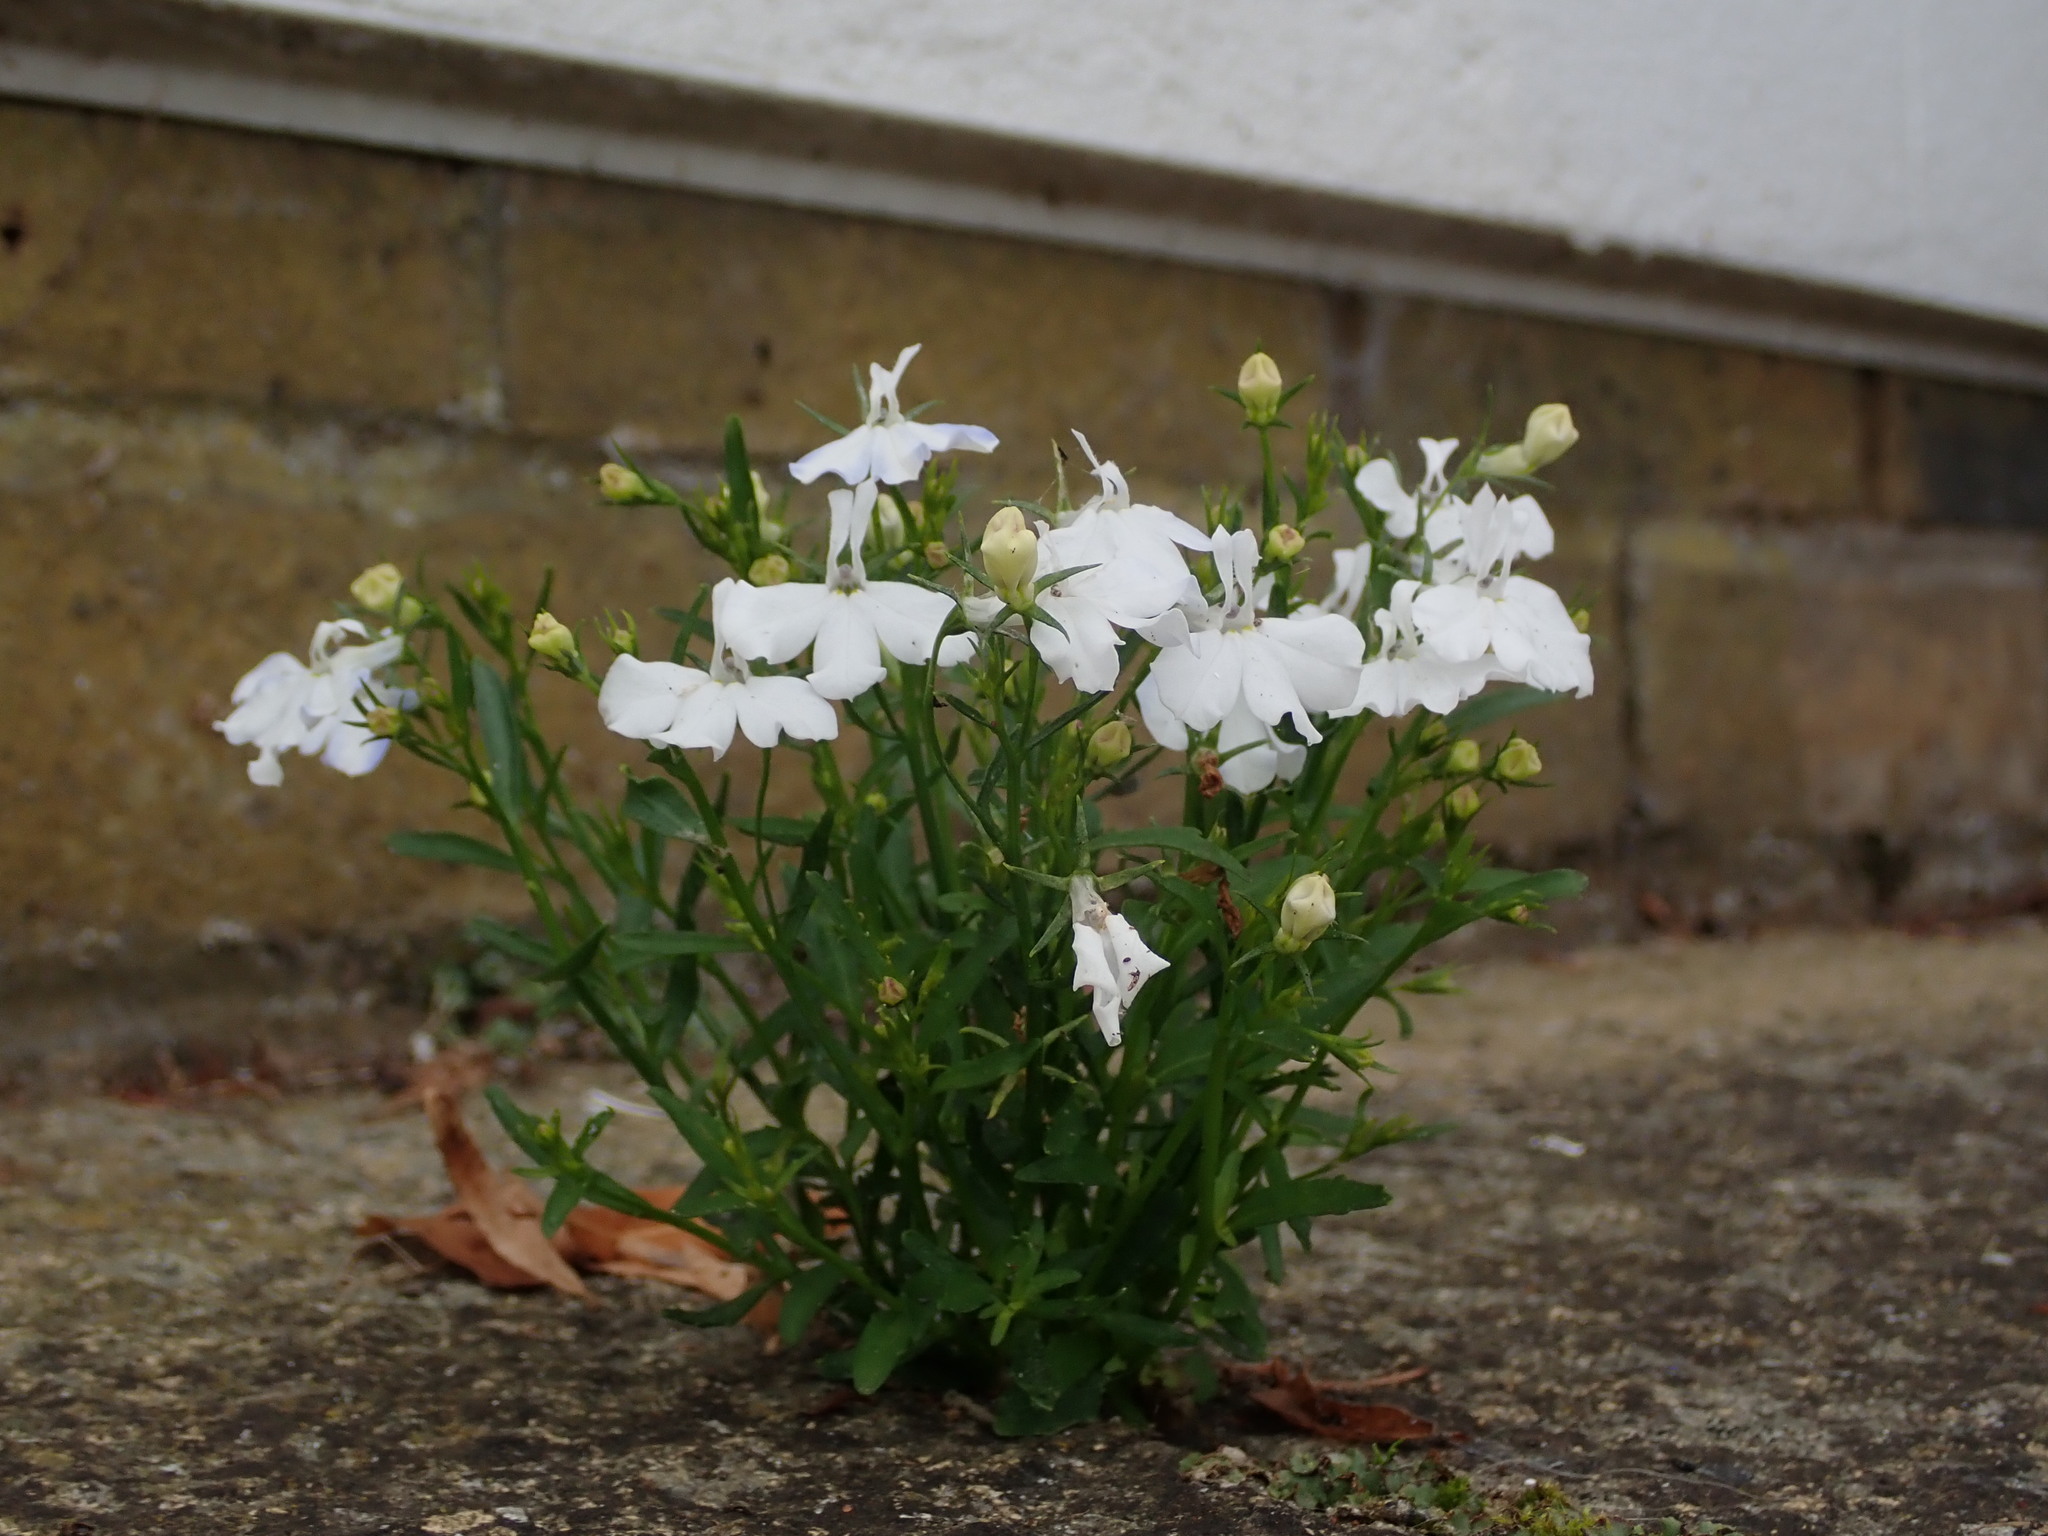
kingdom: Plantae
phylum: Tracheophyta
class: Magnoliopsida
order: Asterales
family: Campanulaceae
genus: Lobelia
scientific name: Lobelia erinus
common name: Edging lobelia
